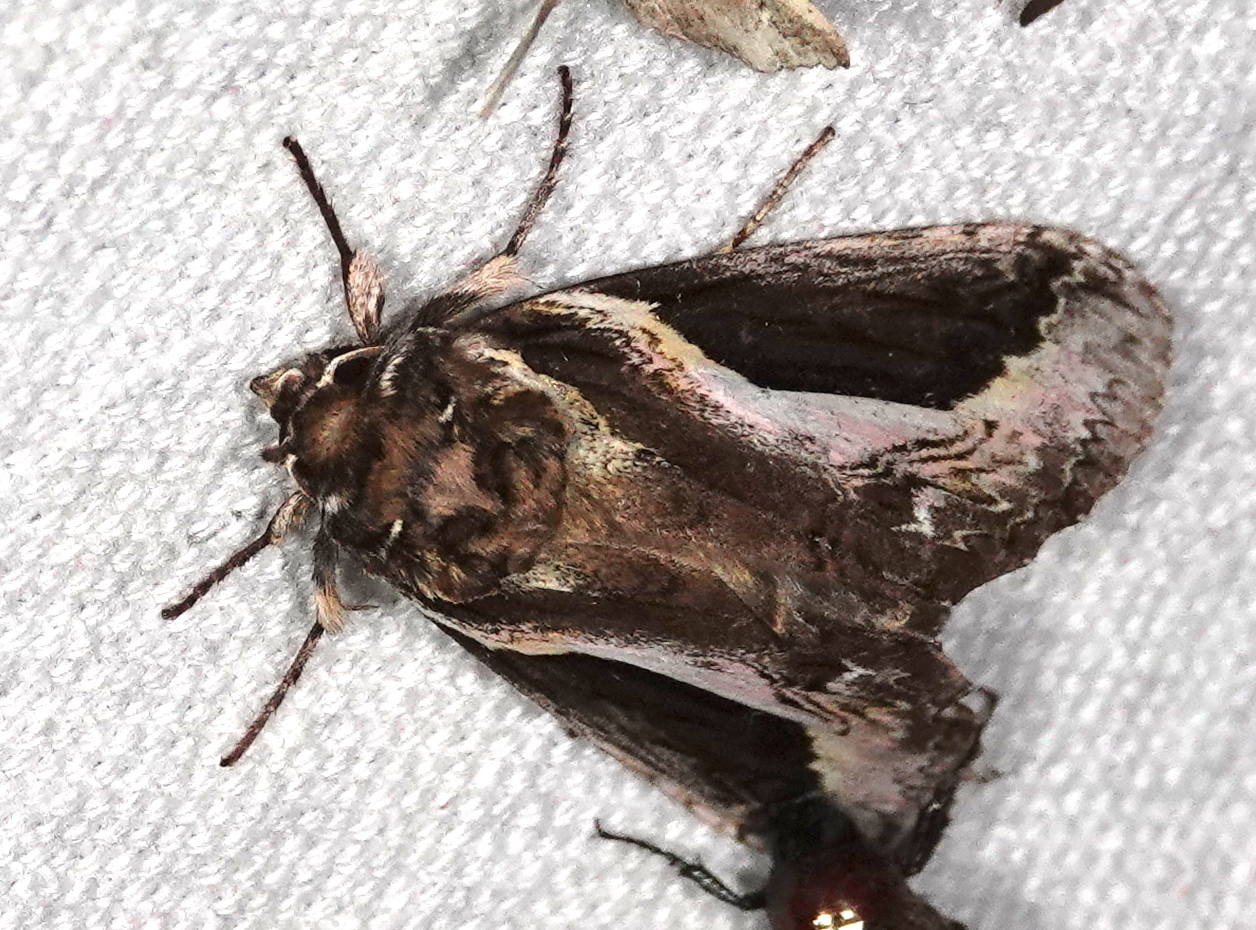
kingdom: Animalia
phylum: Arthropoda
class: Insecta
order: Lepidoptera
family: Notodontidae
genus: Rhuda
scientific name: Rhuda focula
